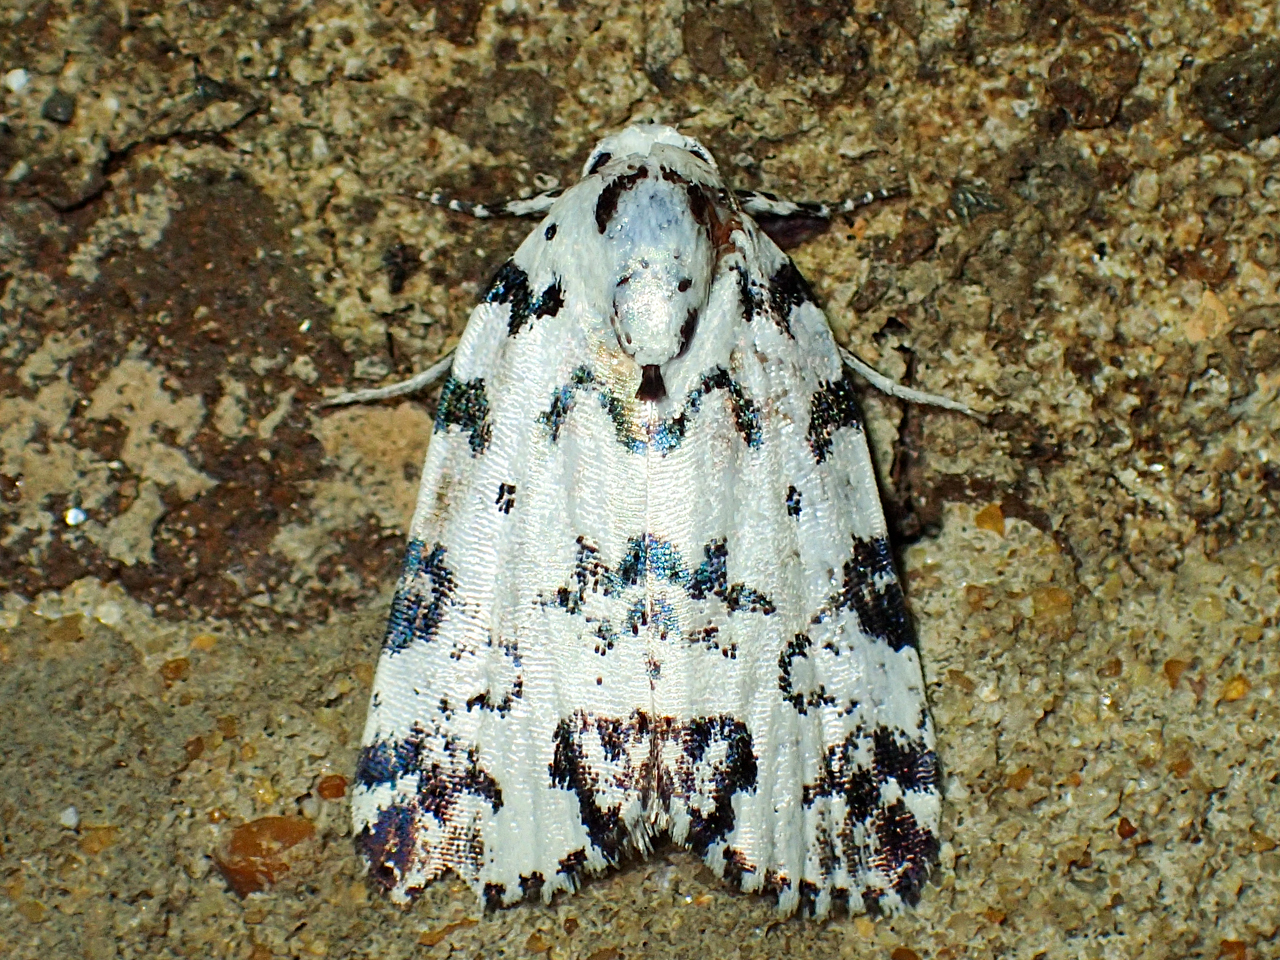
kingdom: Animalia
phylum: Arthropoda
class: Insecta
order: Lepidoptera
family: Noctuidae
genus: Polygrammate
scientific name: Polygrammate hebraeicum
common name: Hebrew moth
